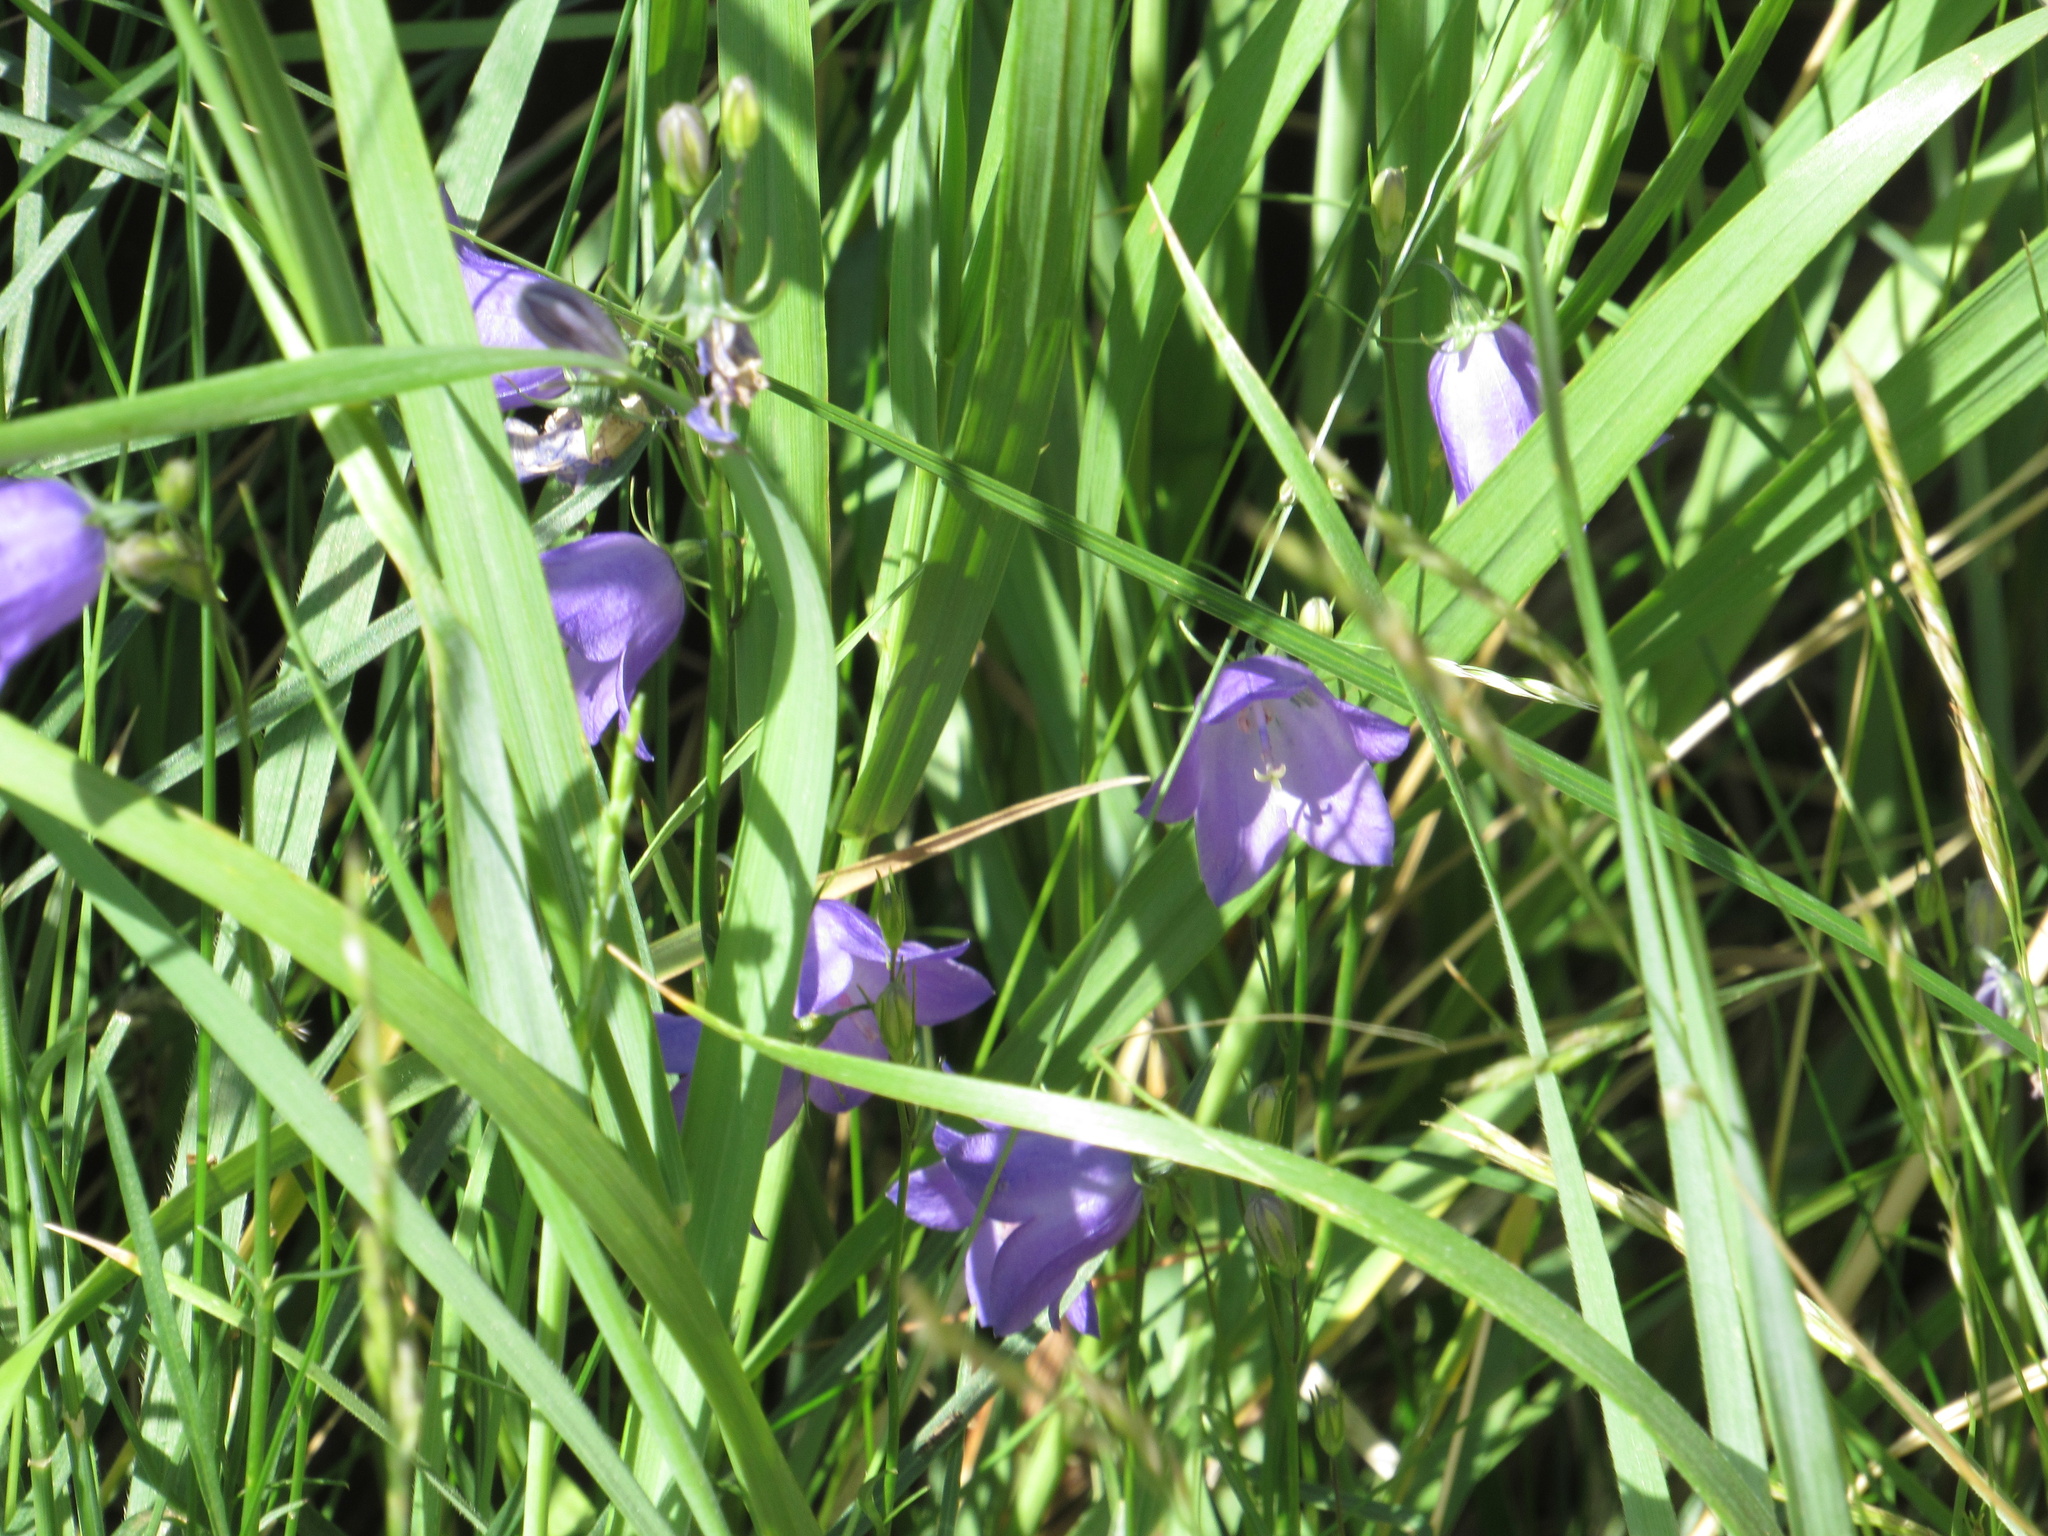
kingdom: Plantae
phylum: Tracheophyta
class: Magnoliopsida
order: Asterales
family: Campanulaceae
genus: Campanula
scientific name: Campanula petiolata
